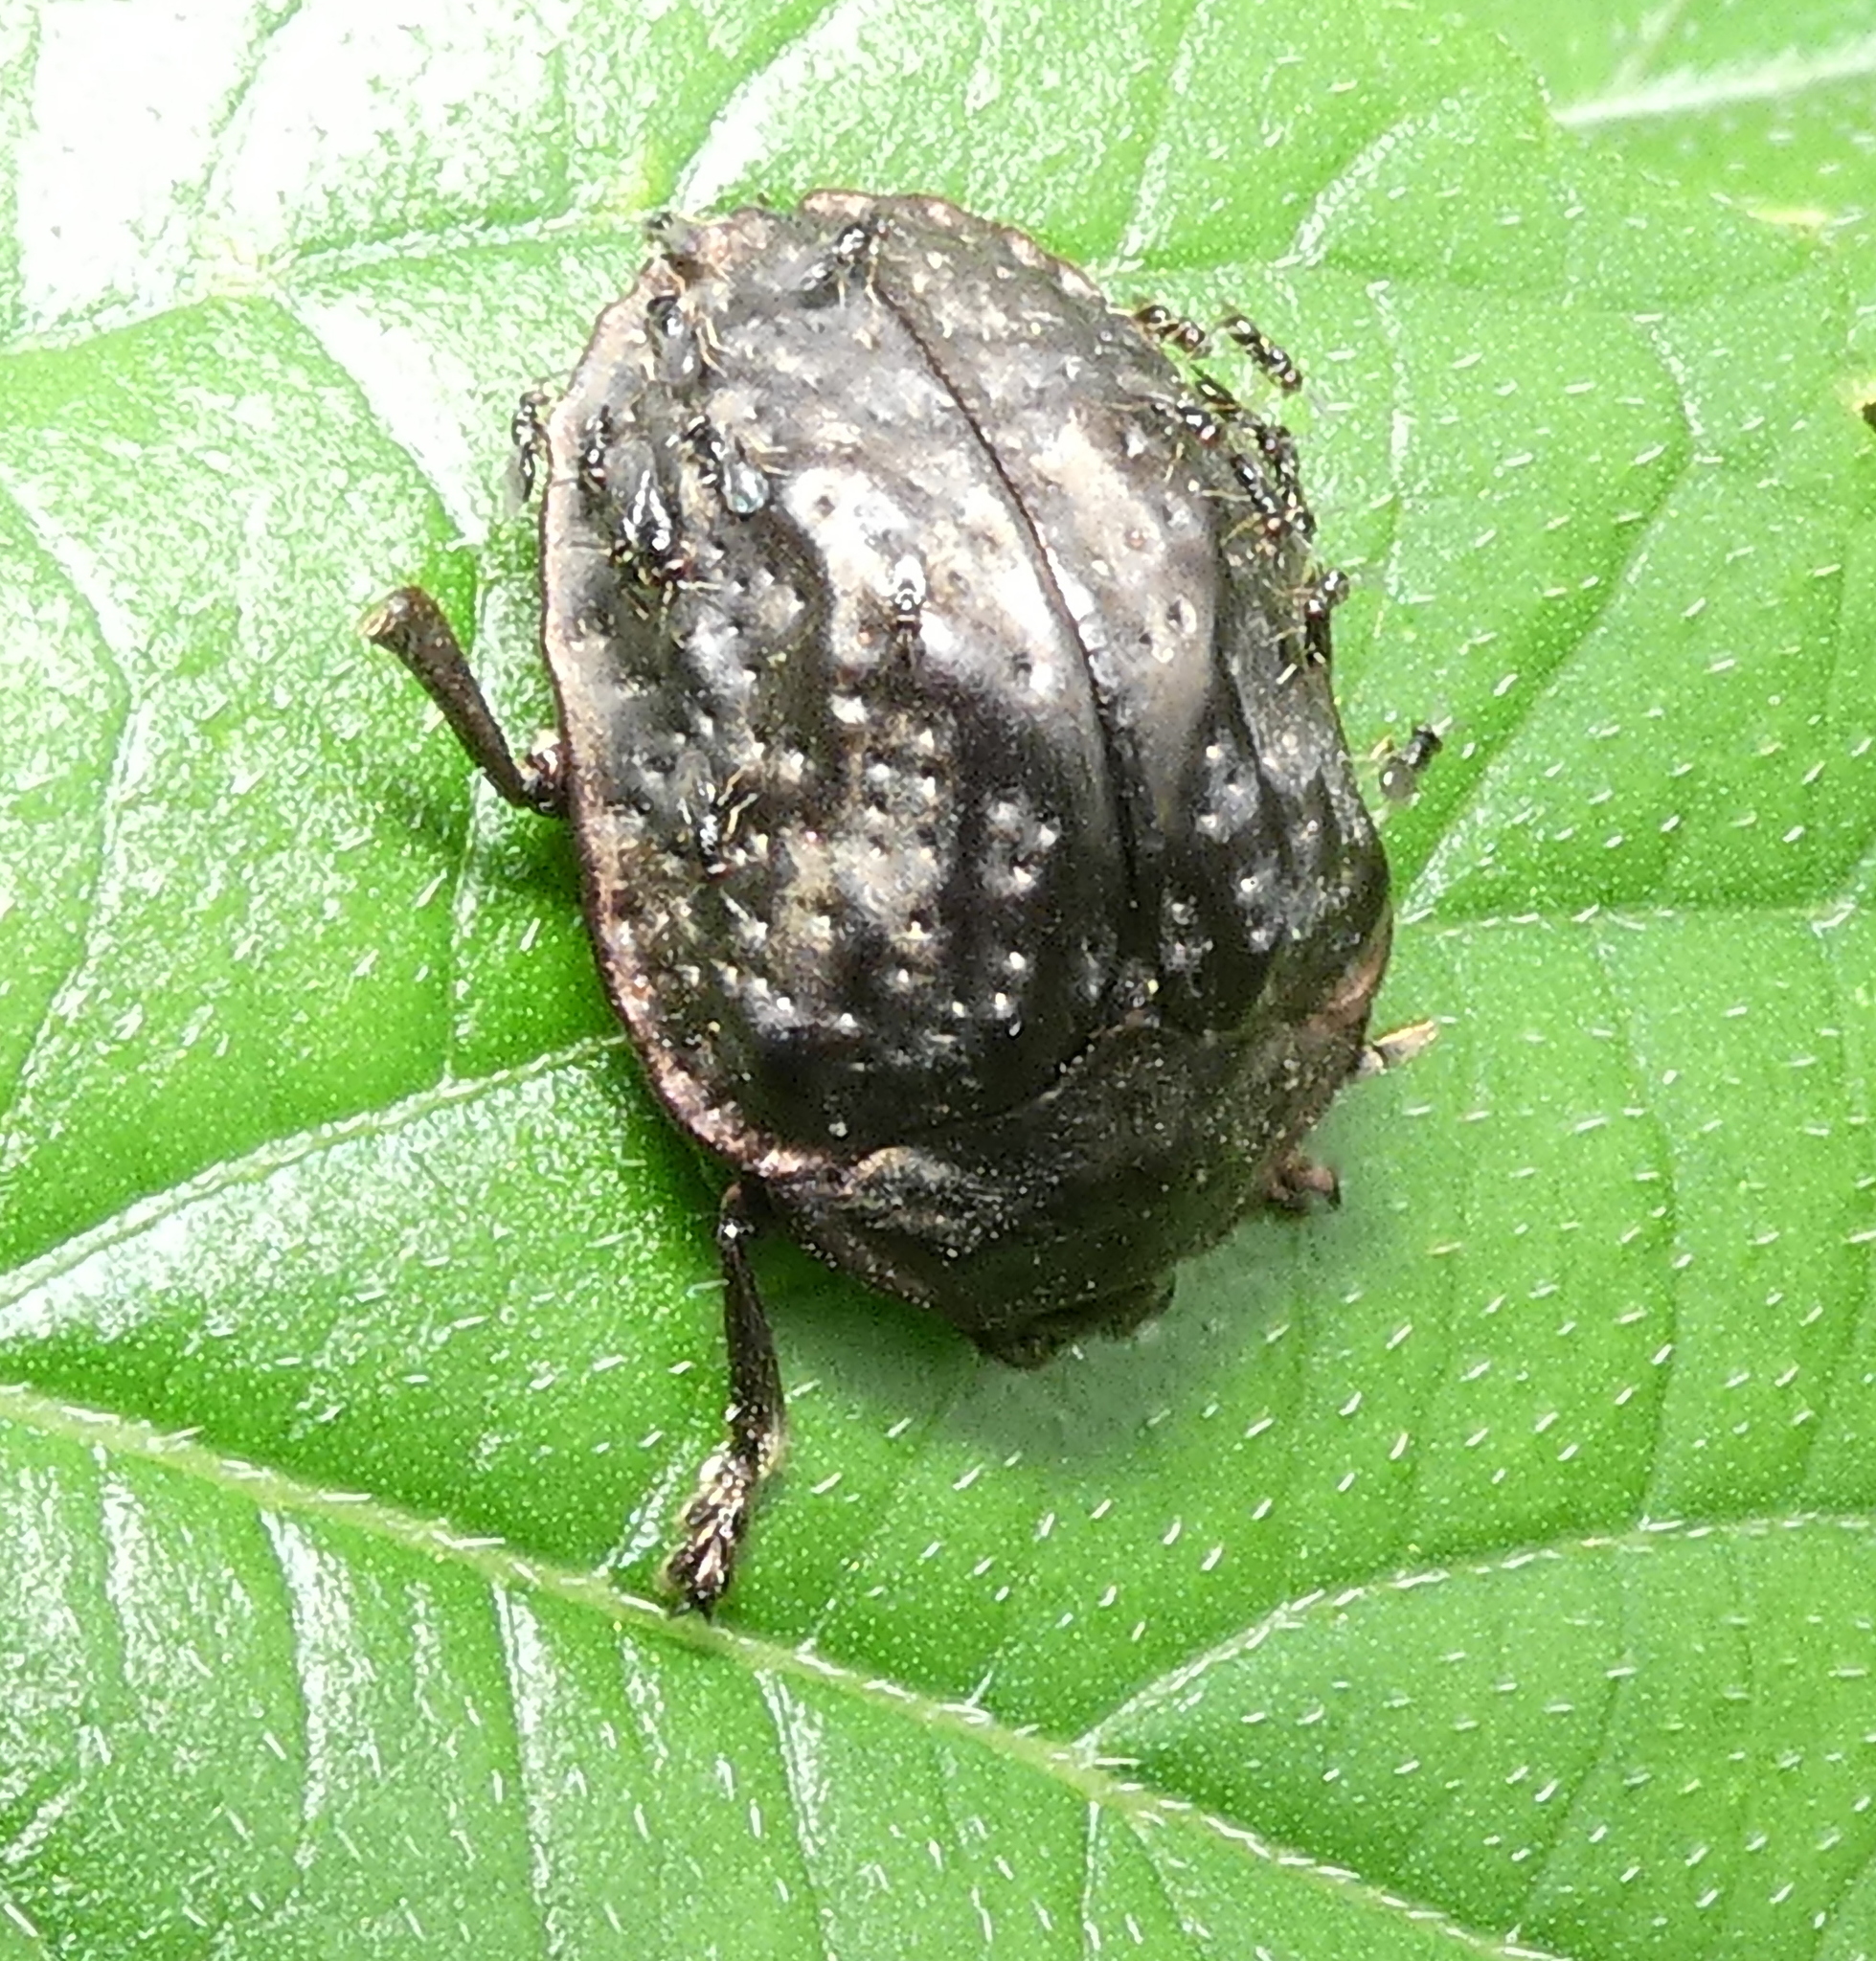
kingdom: Animalia
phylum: Arthropoda
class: Insecta
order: Coleoptera
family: Chrysomelidae
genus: Polychalca
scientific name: Polychalca aerea
